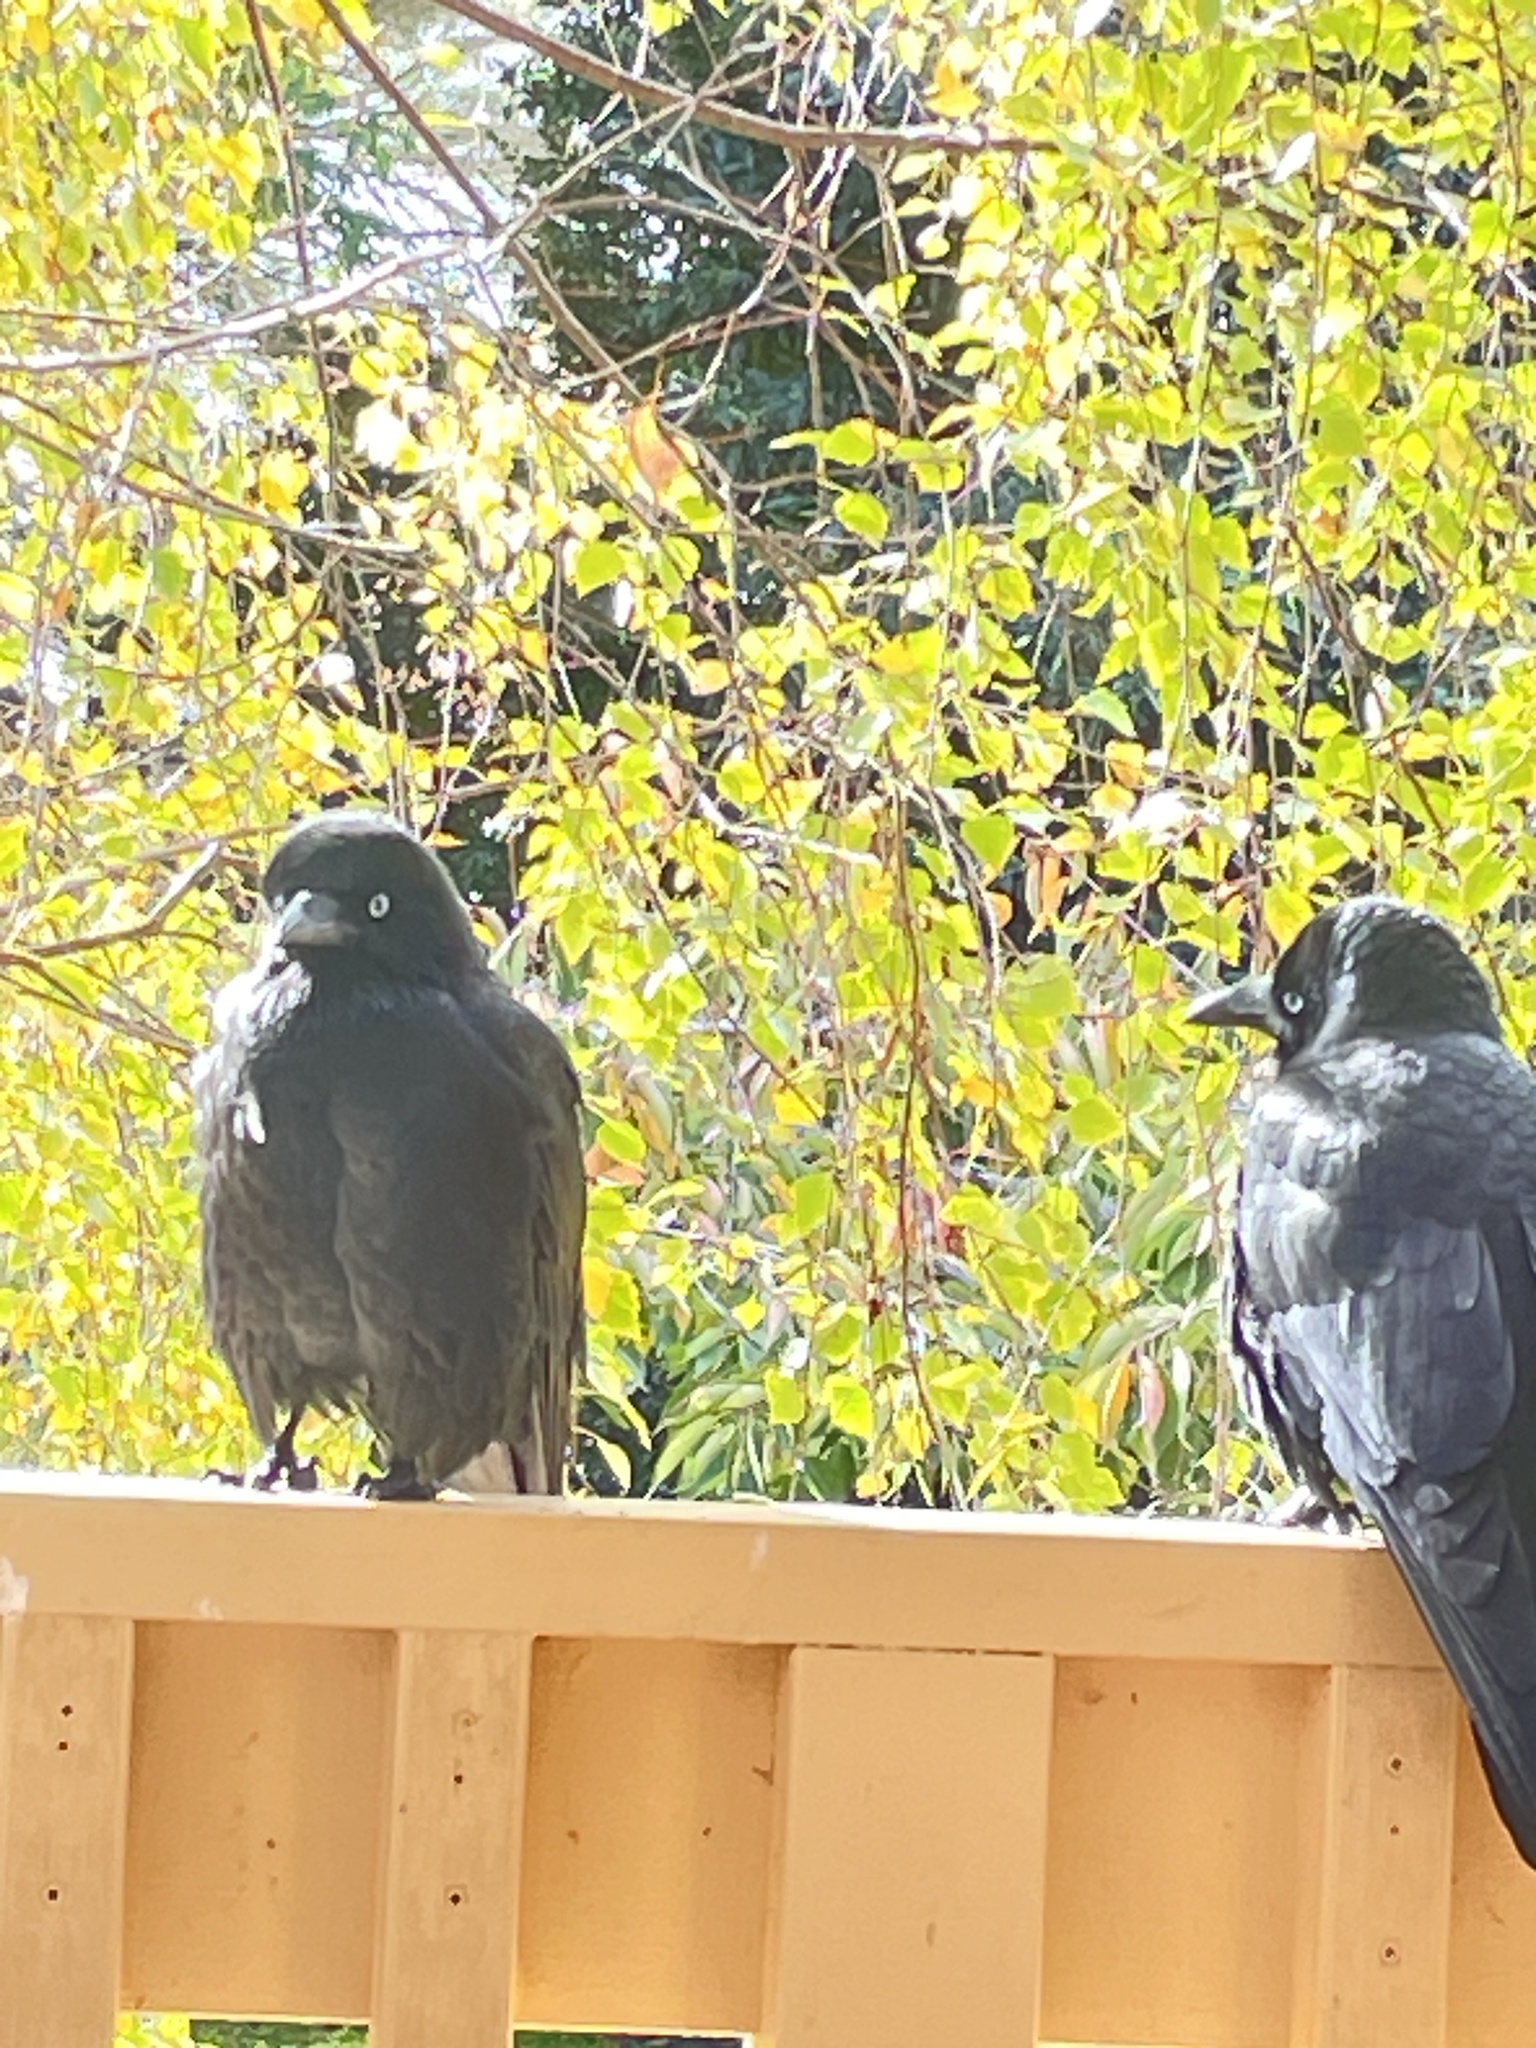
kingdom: Animalia
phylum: Chordata
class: Aves
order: Passeriformes
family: Corvidae
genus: Corvus
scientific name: Corvus mellori
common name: Little raven
